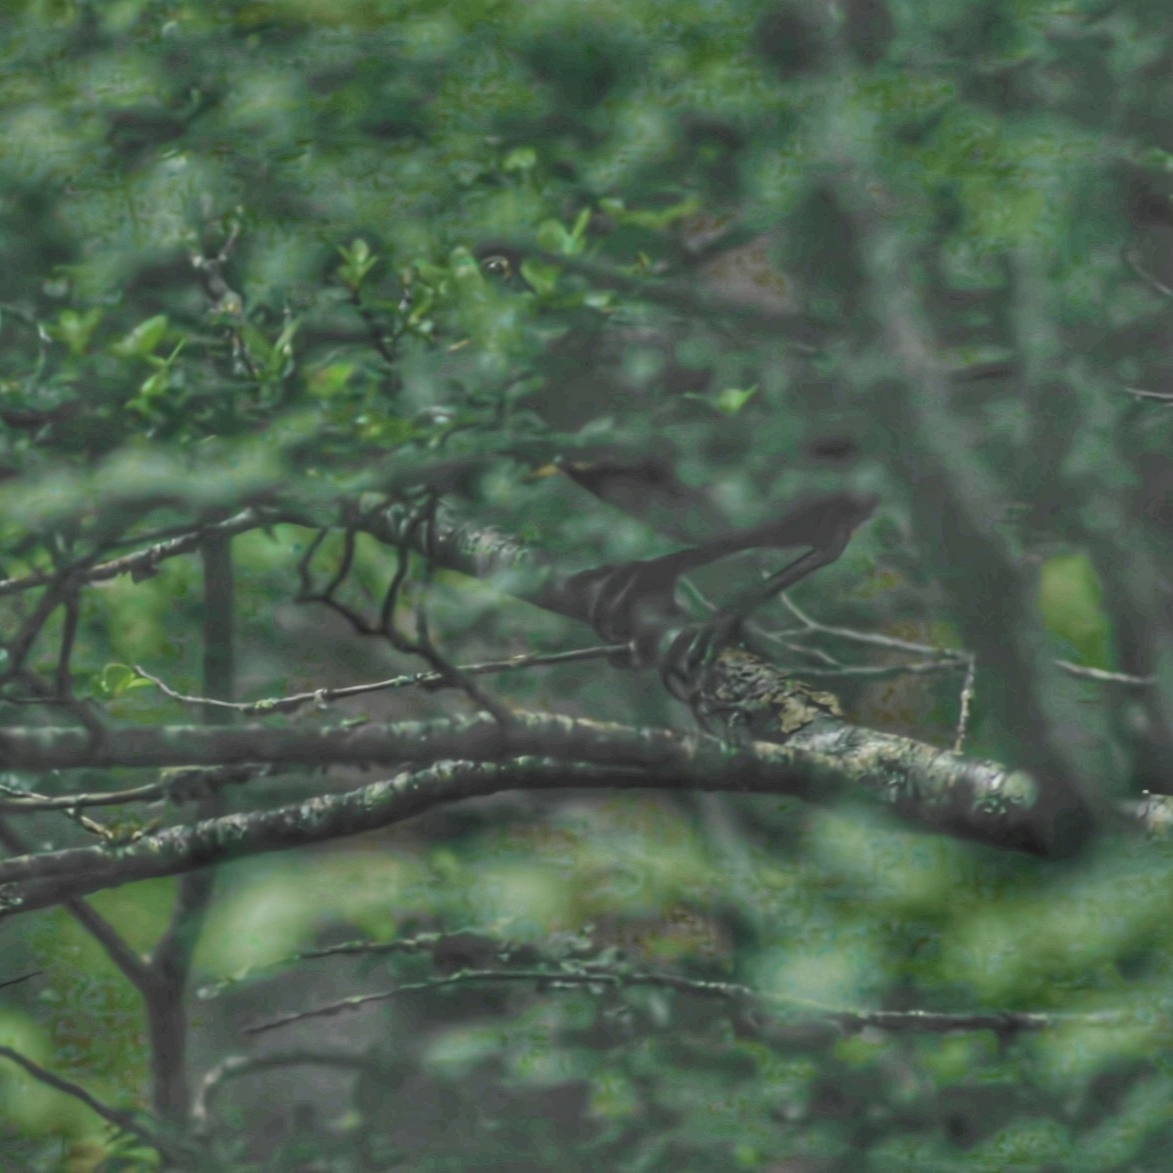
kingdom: Animalia
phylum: Chordata
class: Aves
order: Passeriformes
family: Rhinocryptidae
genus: Pteroptochos
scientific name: Pteroptochos tarnii
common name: Black-throated huet-huet
